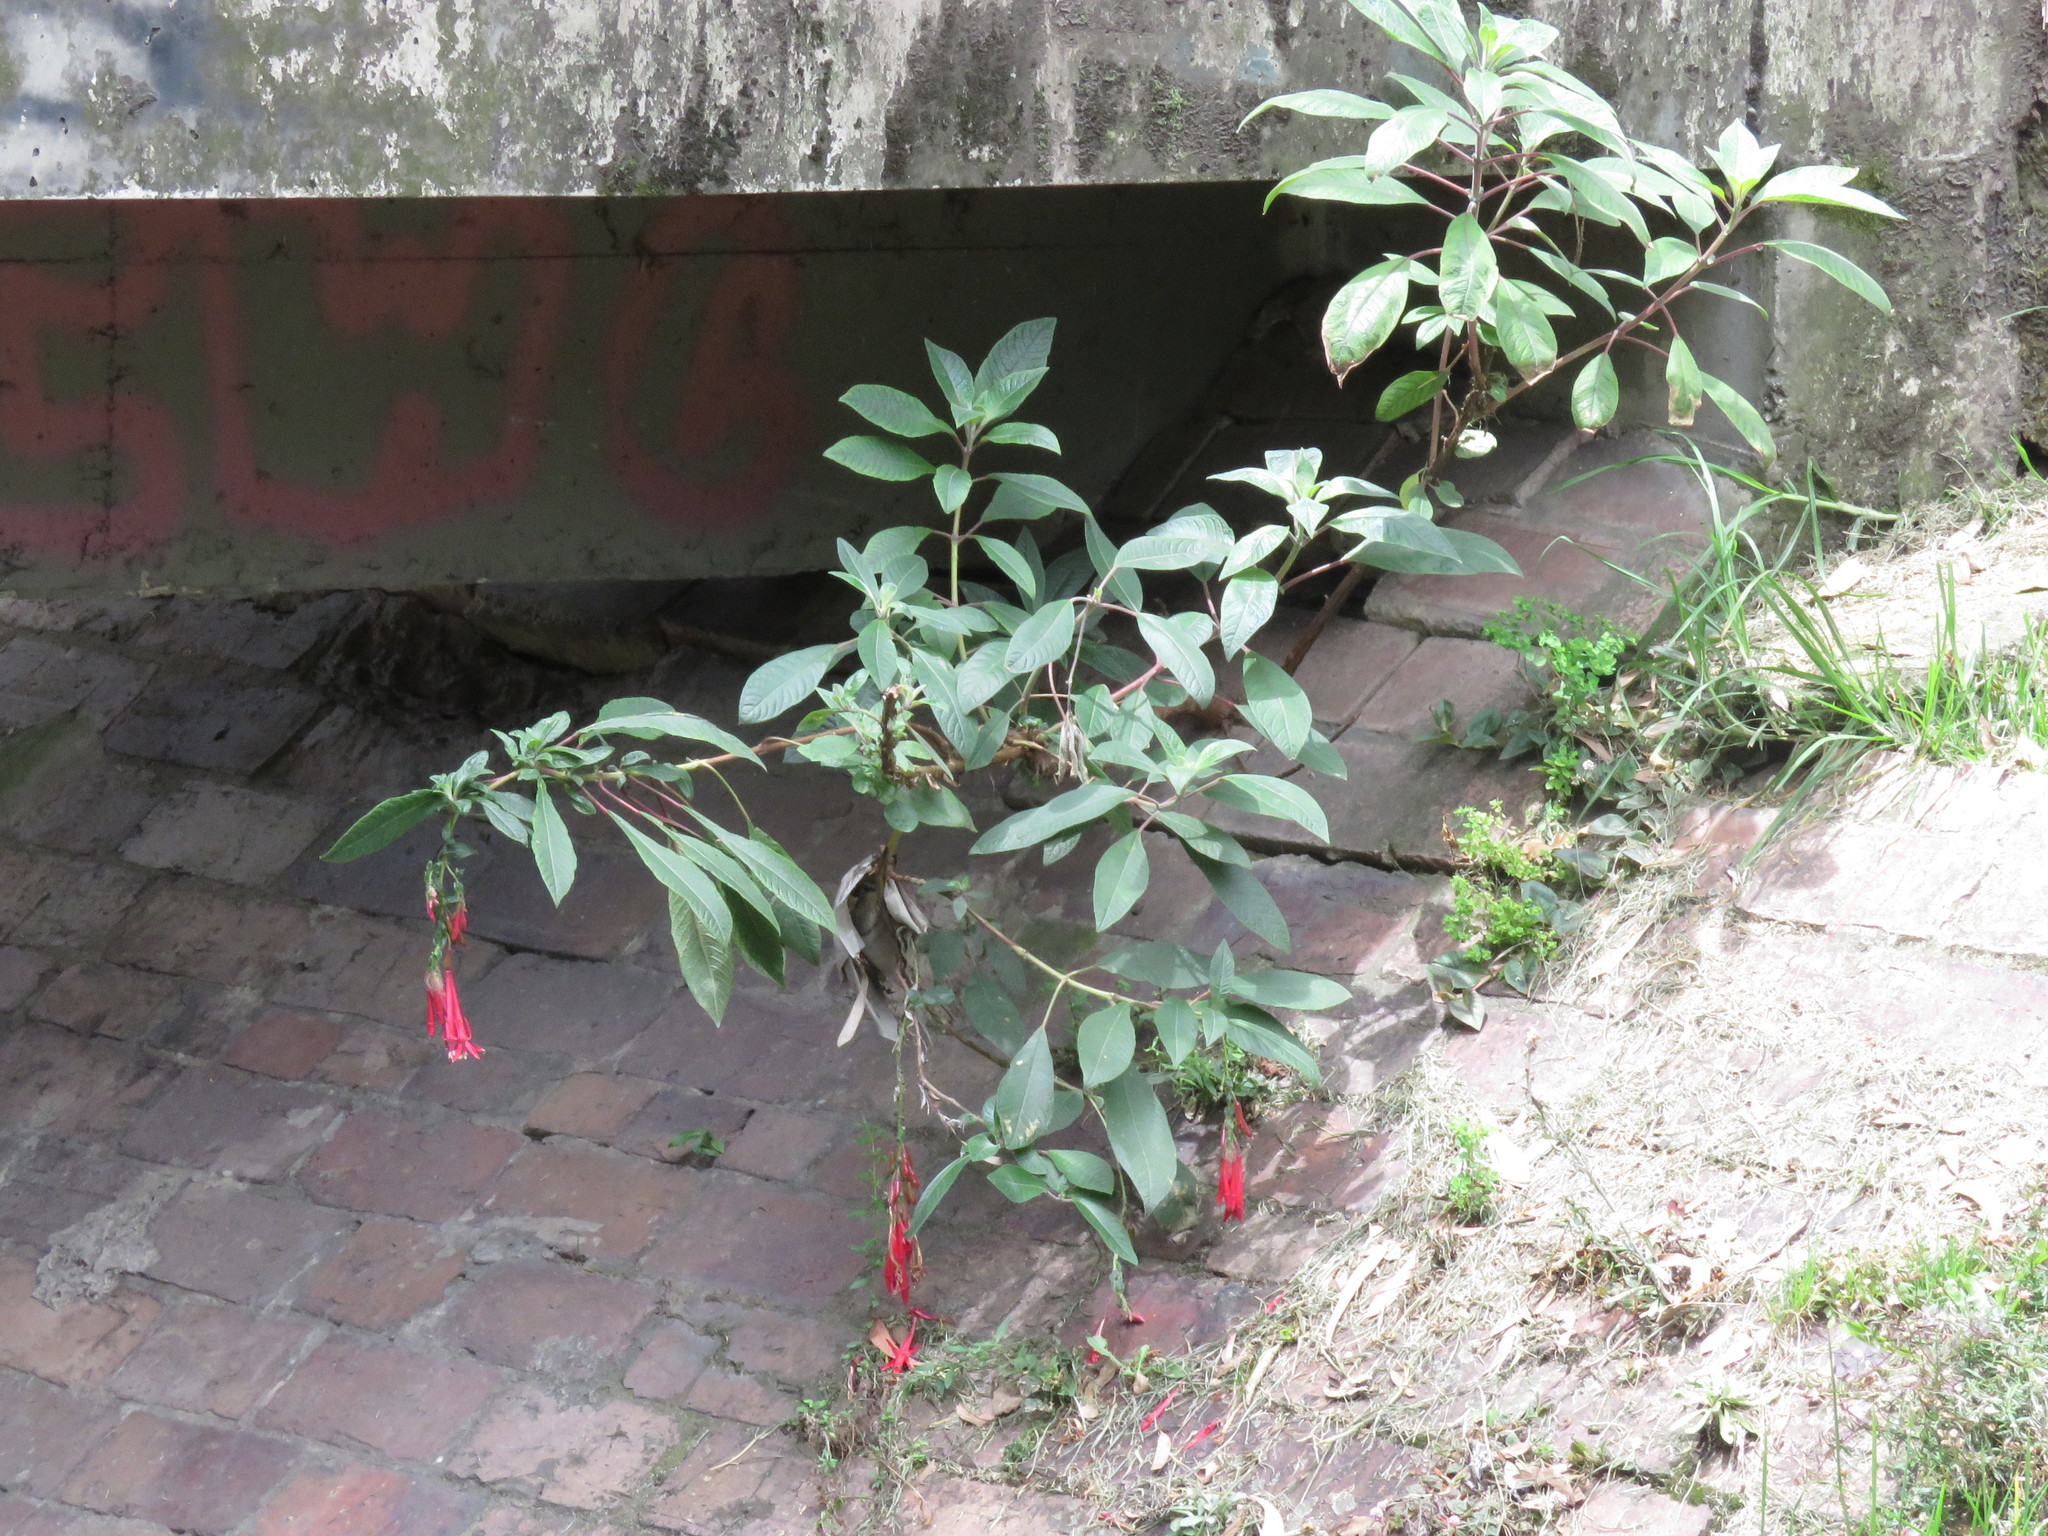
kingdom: Plantae
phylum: Tracheophyta
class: Magnoliopsida
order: Myrtales
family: Onagraceae
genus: Fuchsia
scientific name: Fuchsia boliviana
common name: Bolivian fuchsia
